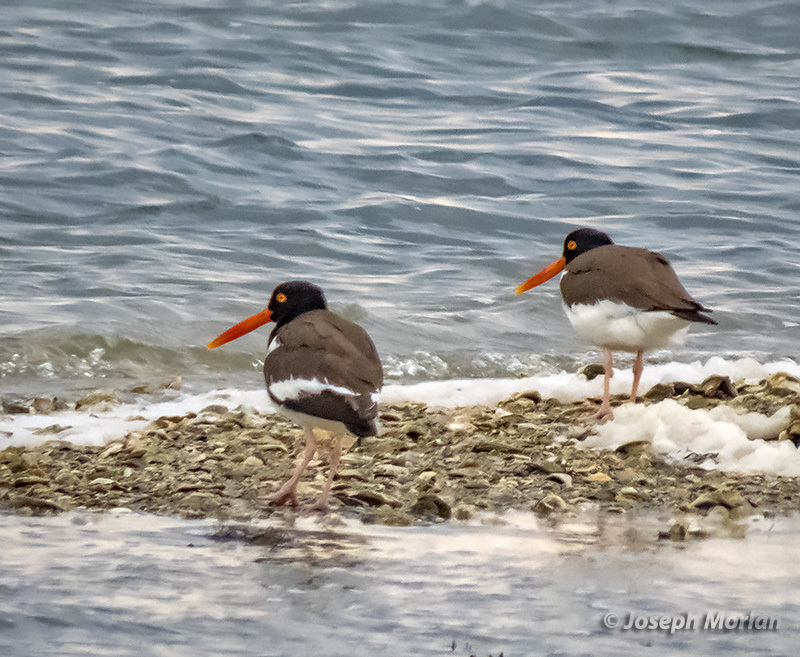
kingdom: Animalia
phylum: Chordata
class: Aves
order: Charadriiformes
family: Haematopodidae
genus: Haematopus
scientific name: Haematopus palliatus
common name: American oystercatcher
